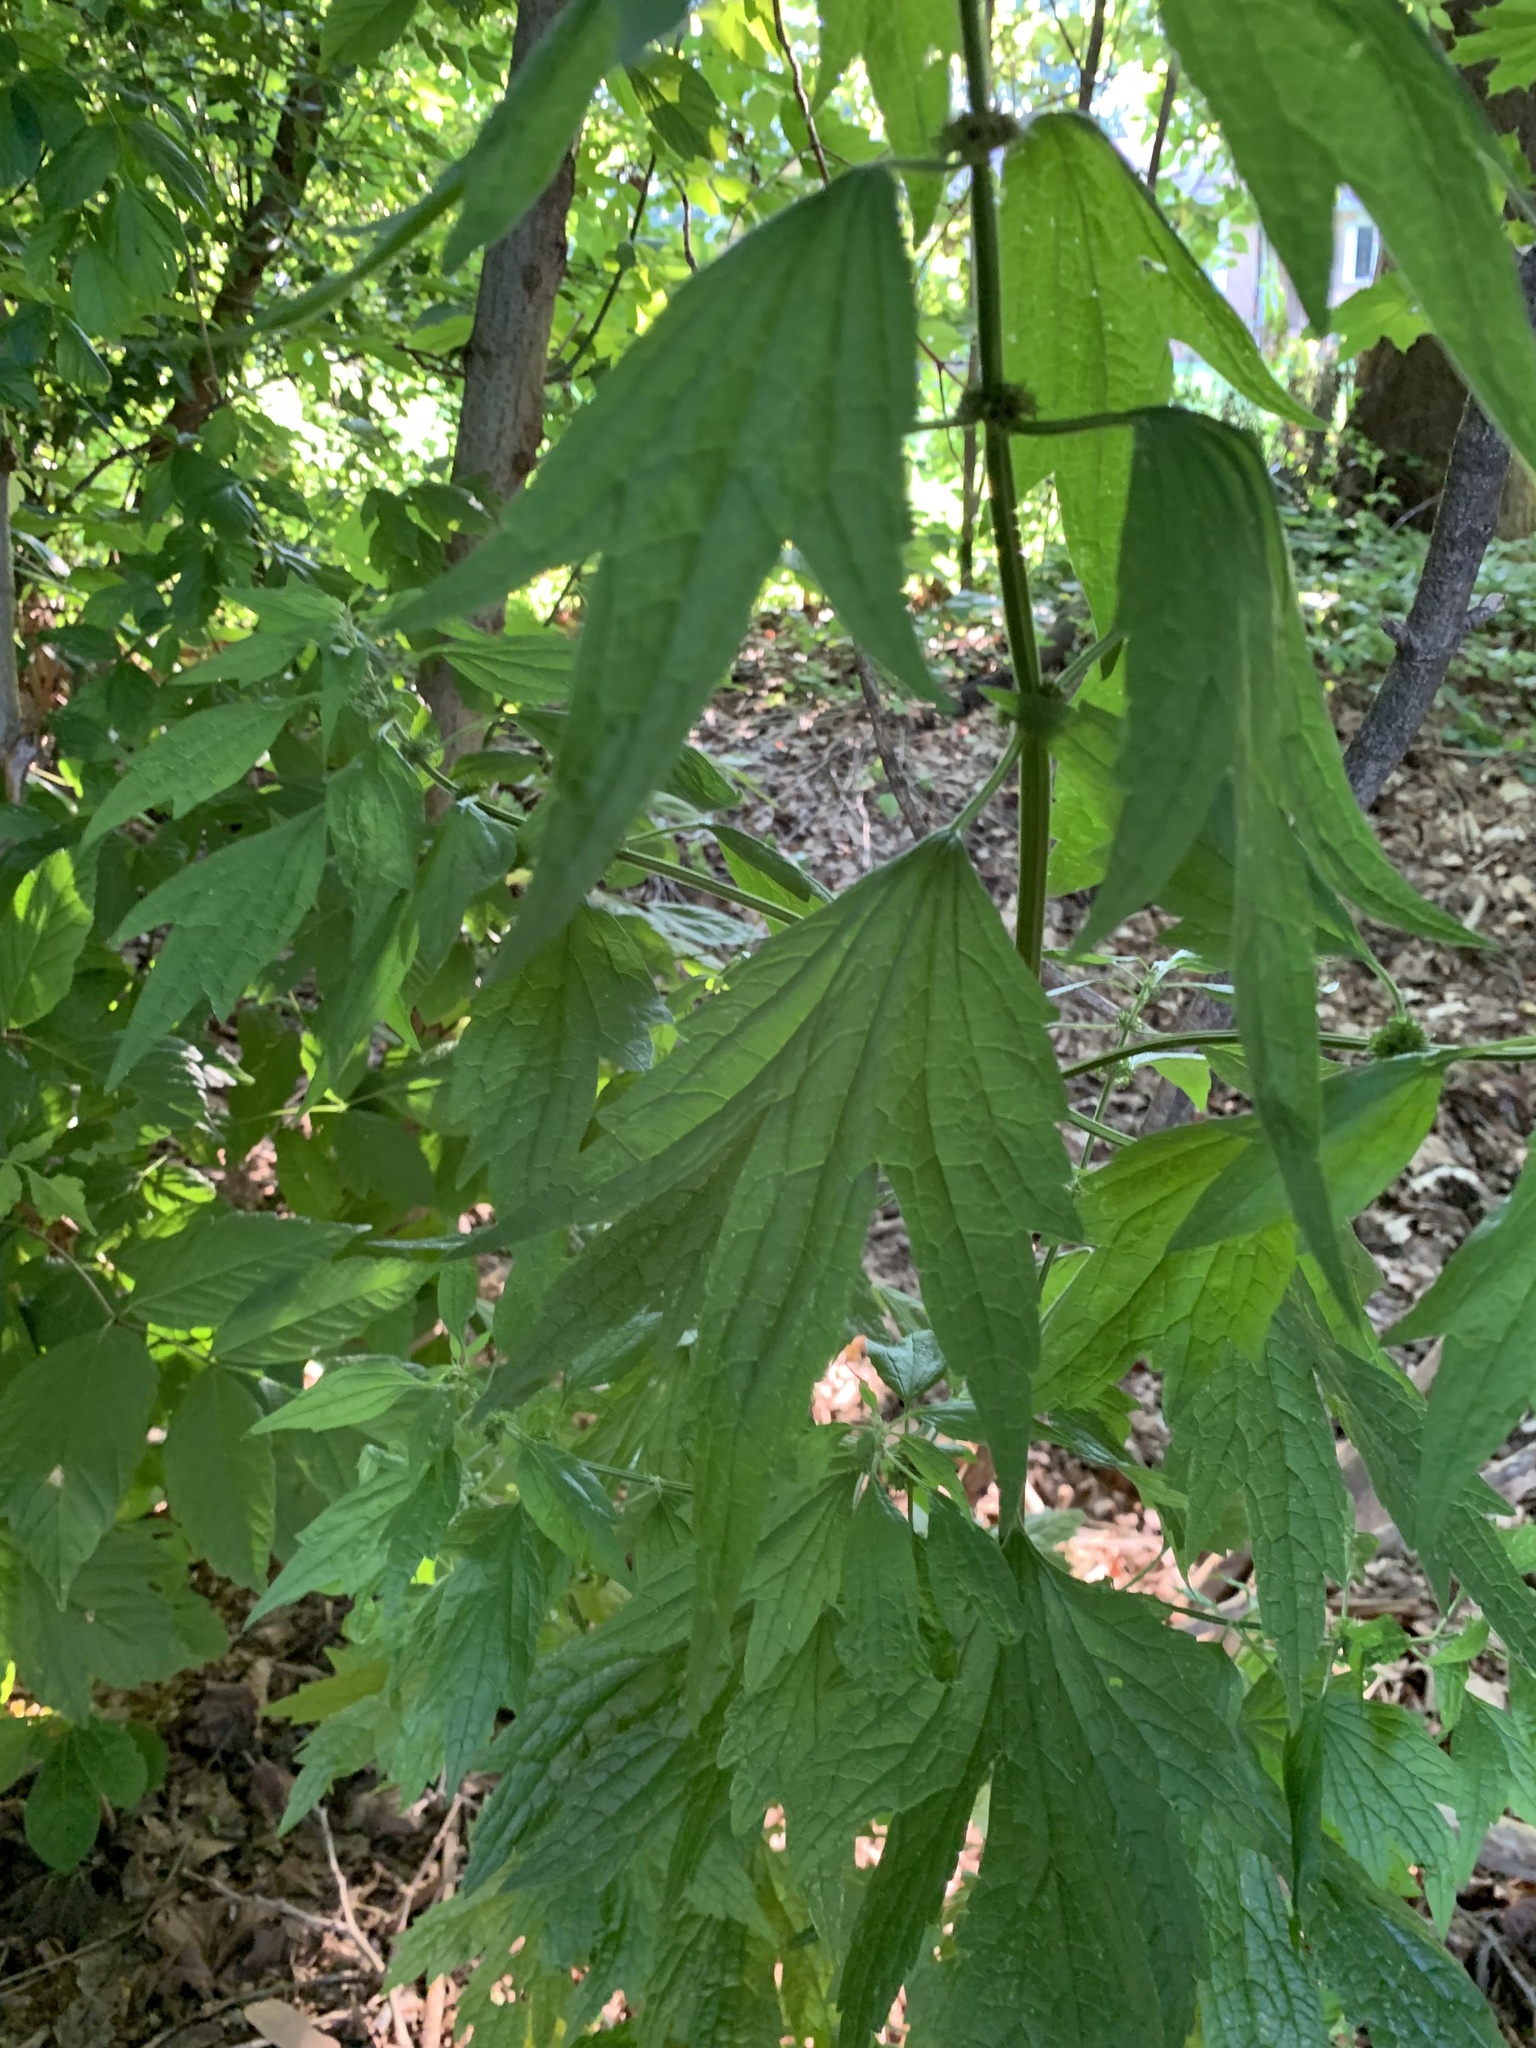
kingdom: Plantae
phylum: Tracheophyta
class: Magnoliopsida
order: Lamiales
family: Lamiaceae
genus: Leonurus
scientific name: Leonurus cardiaca
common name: Motherwort
